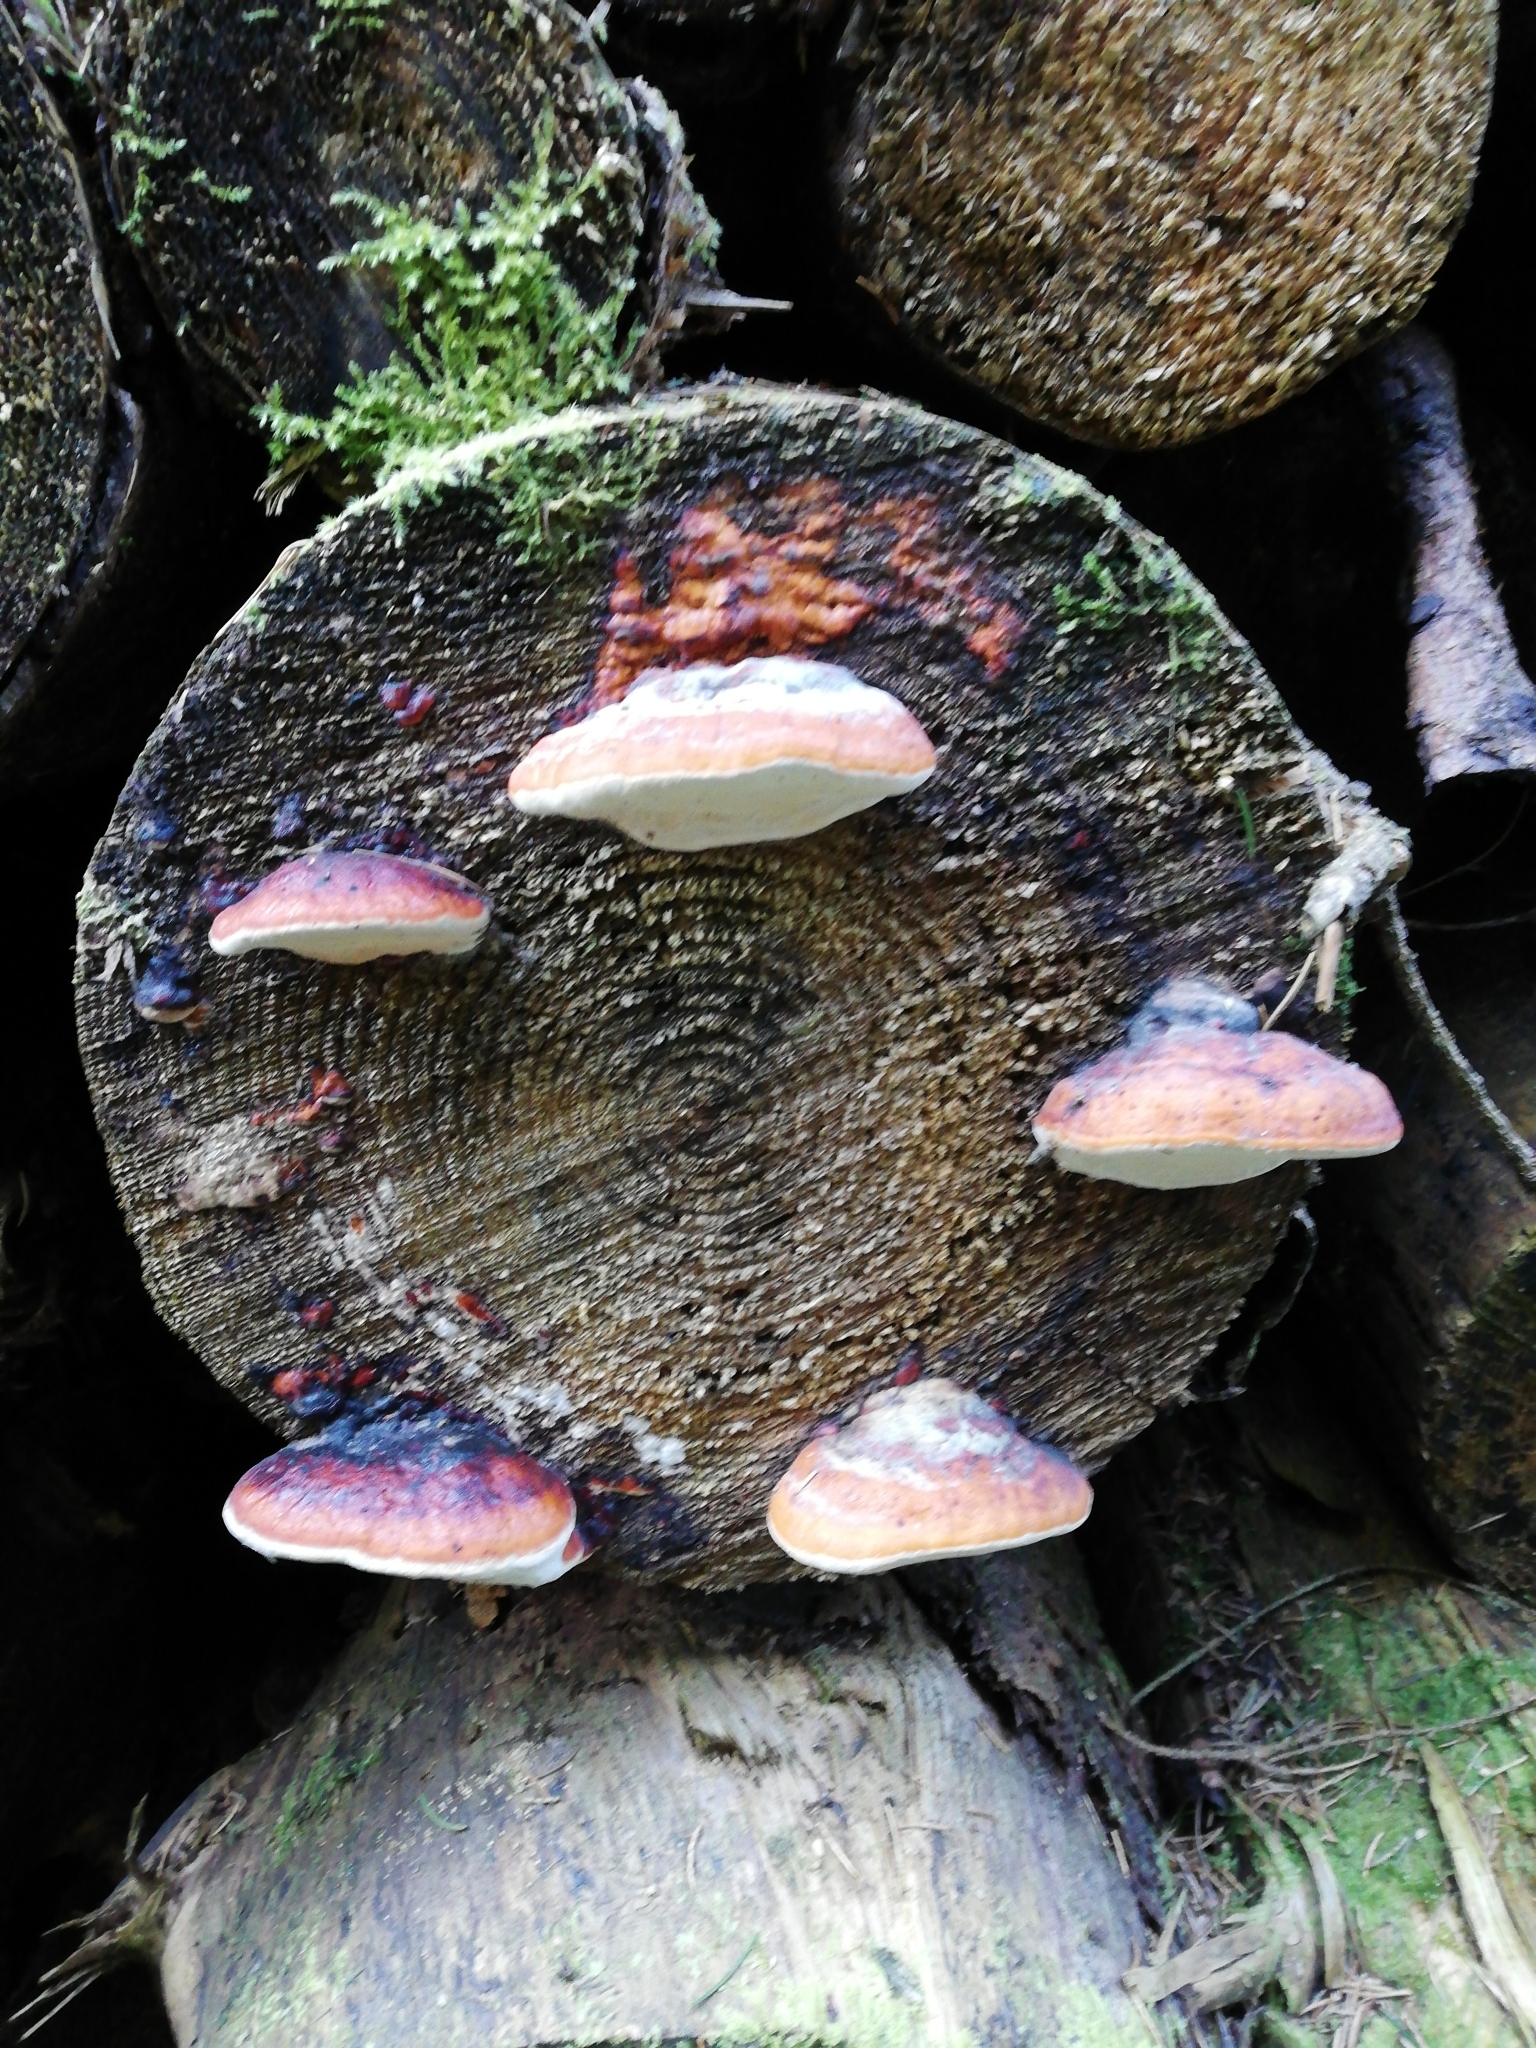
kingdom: Fungi
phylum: Basidiomycota
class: Agaricomycetes
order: Polyporales
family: Fomitopsidaceae
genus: Fomitopsis
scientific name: Fomitopsis pinicola
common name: Red-belted bracket
